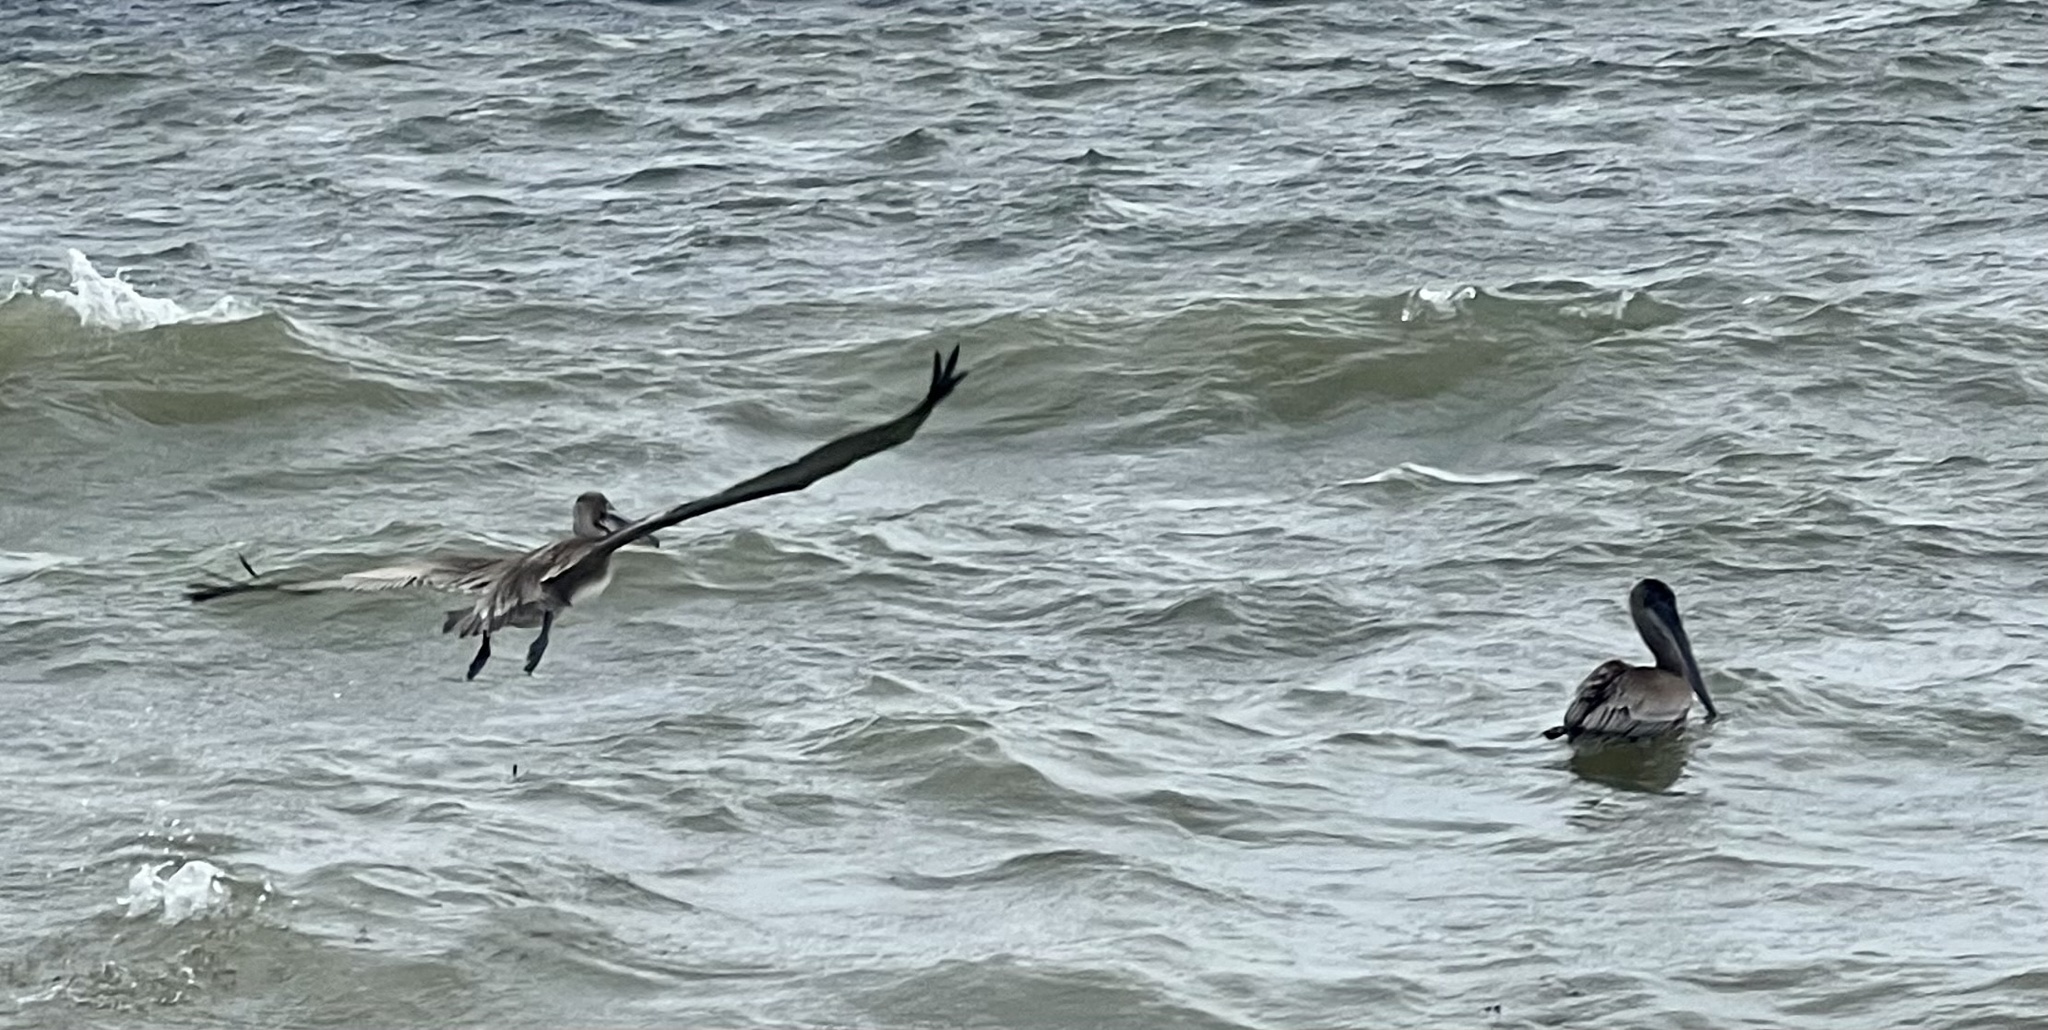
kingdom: Animalia
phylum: Chordata
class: Aves
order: Pelecaniformes
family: Pelecanidae
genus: Pelecanus
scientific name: Pelecanus occidentalis
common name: Brown pelican
